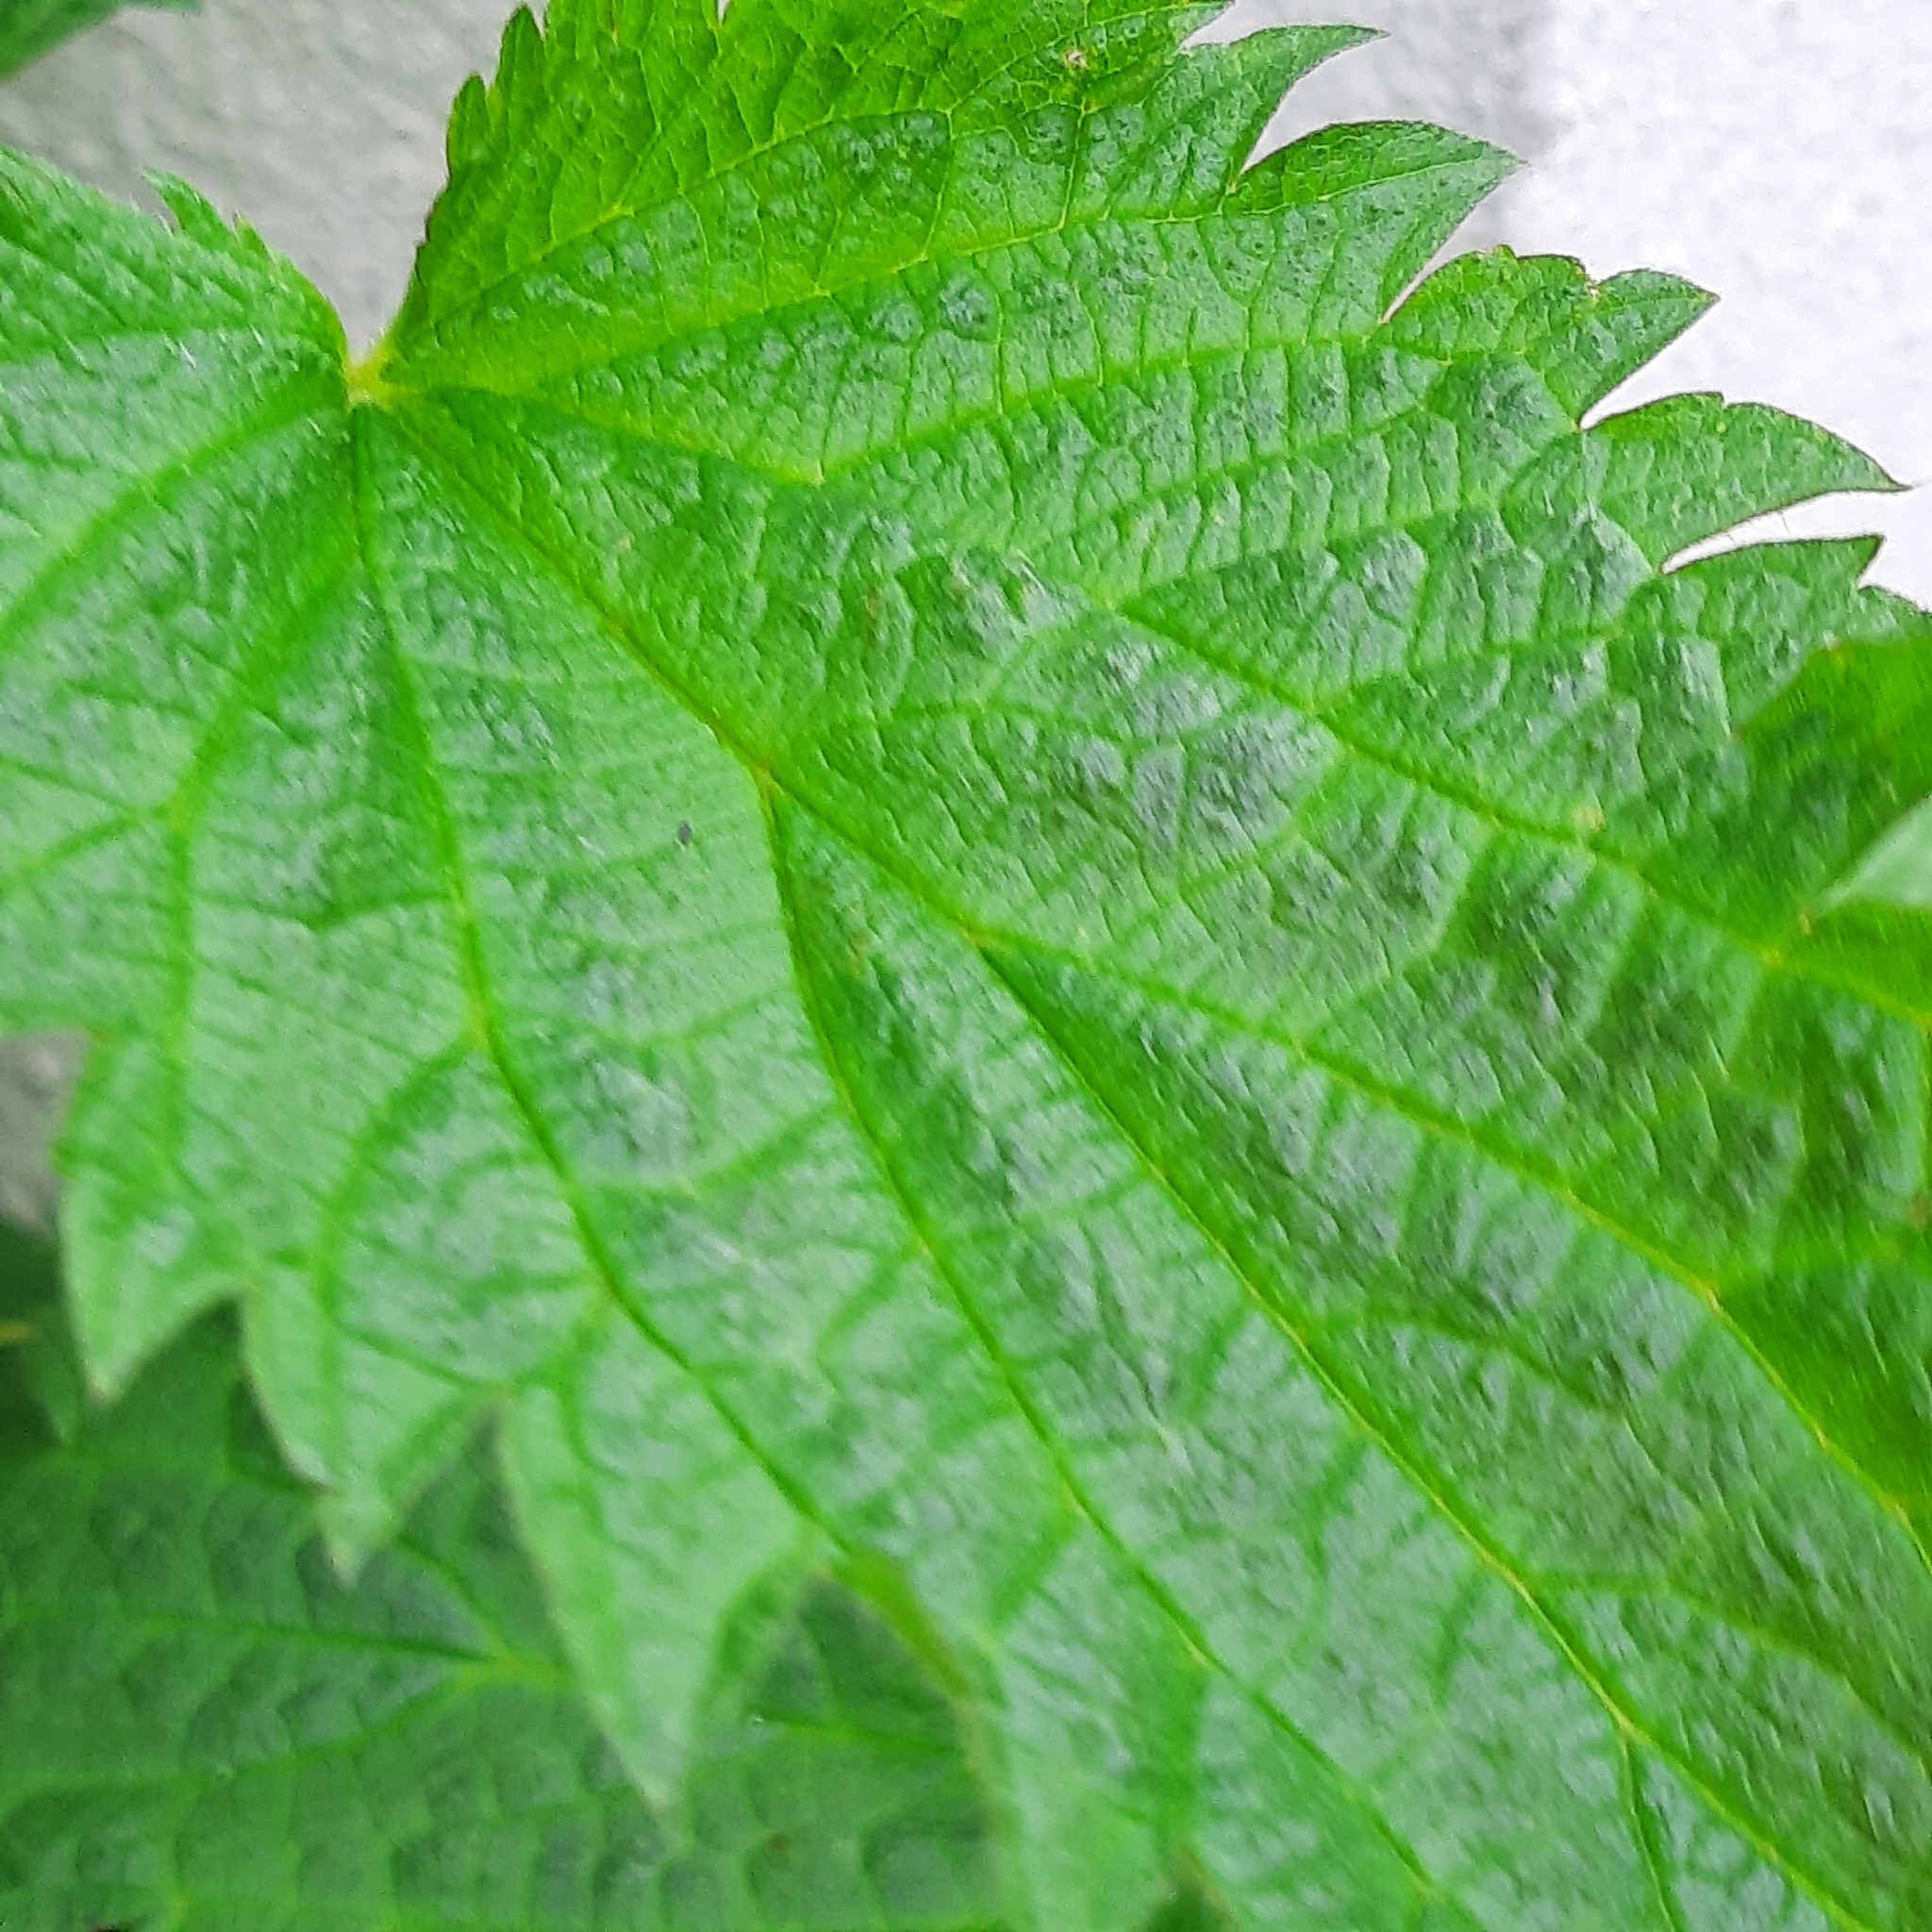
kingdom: Plantae
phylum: Tracheophyta
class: Magnoliopsida
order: Rosales
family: Urticaceae
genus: Urtica
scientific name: Urtica dioica
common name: Common nettle
